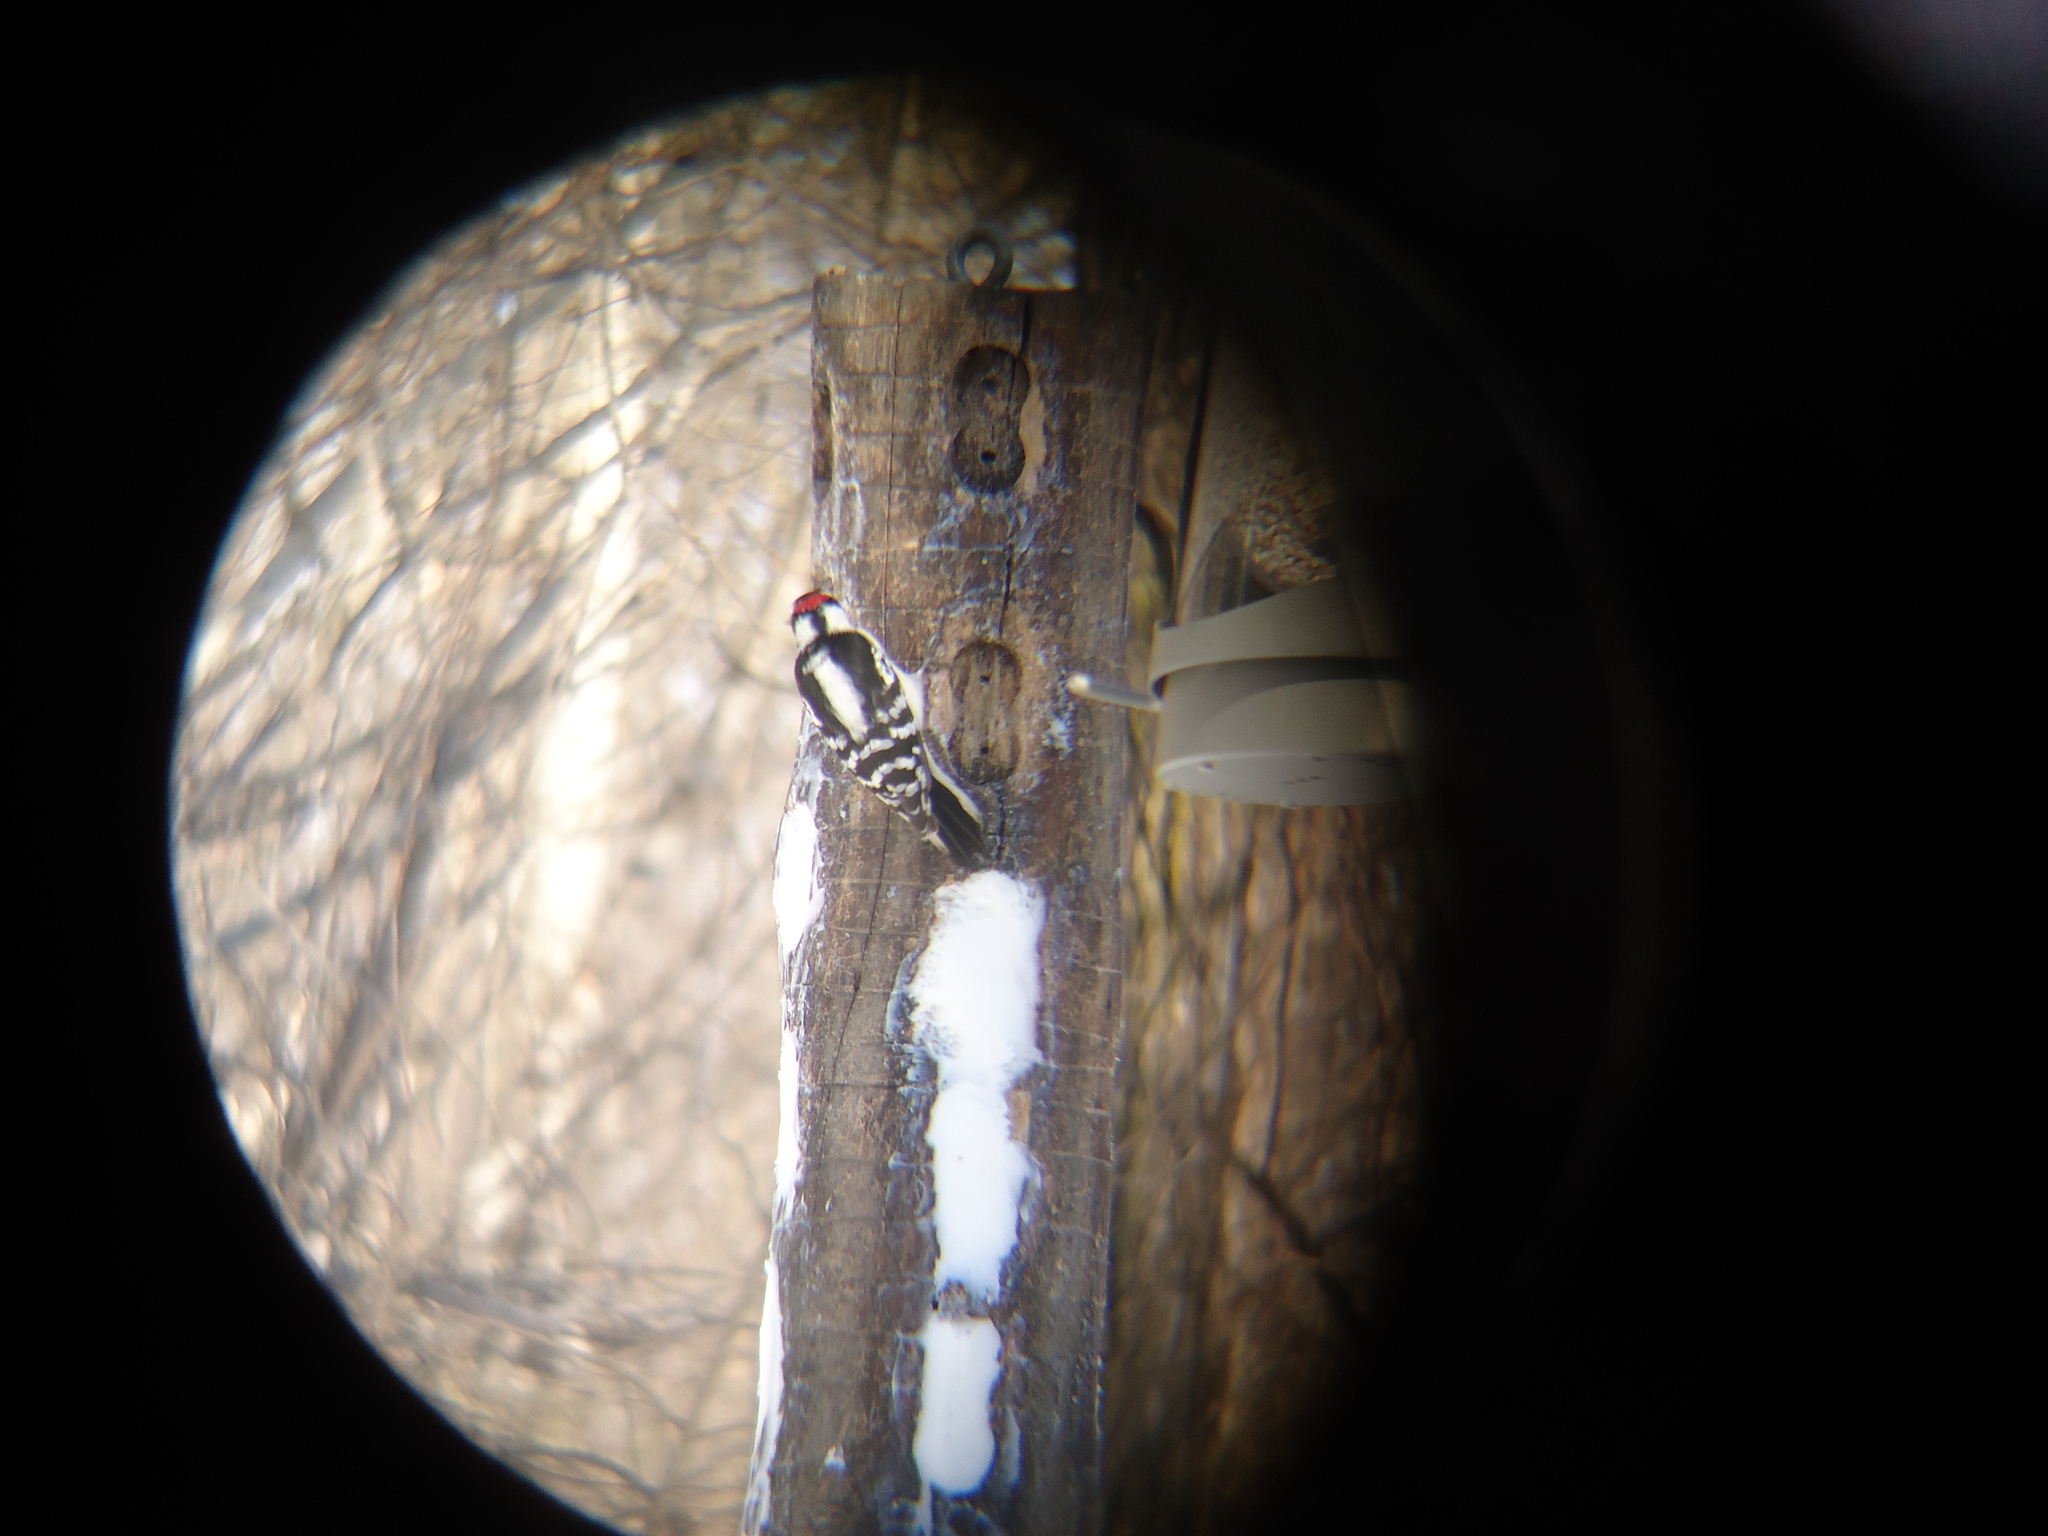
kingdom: Animalia
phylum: Chordata
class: Aves
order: Piciformes
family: Picidae
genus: Dryobates
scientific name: Dryobates pubescens
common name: Downy woodpecker
